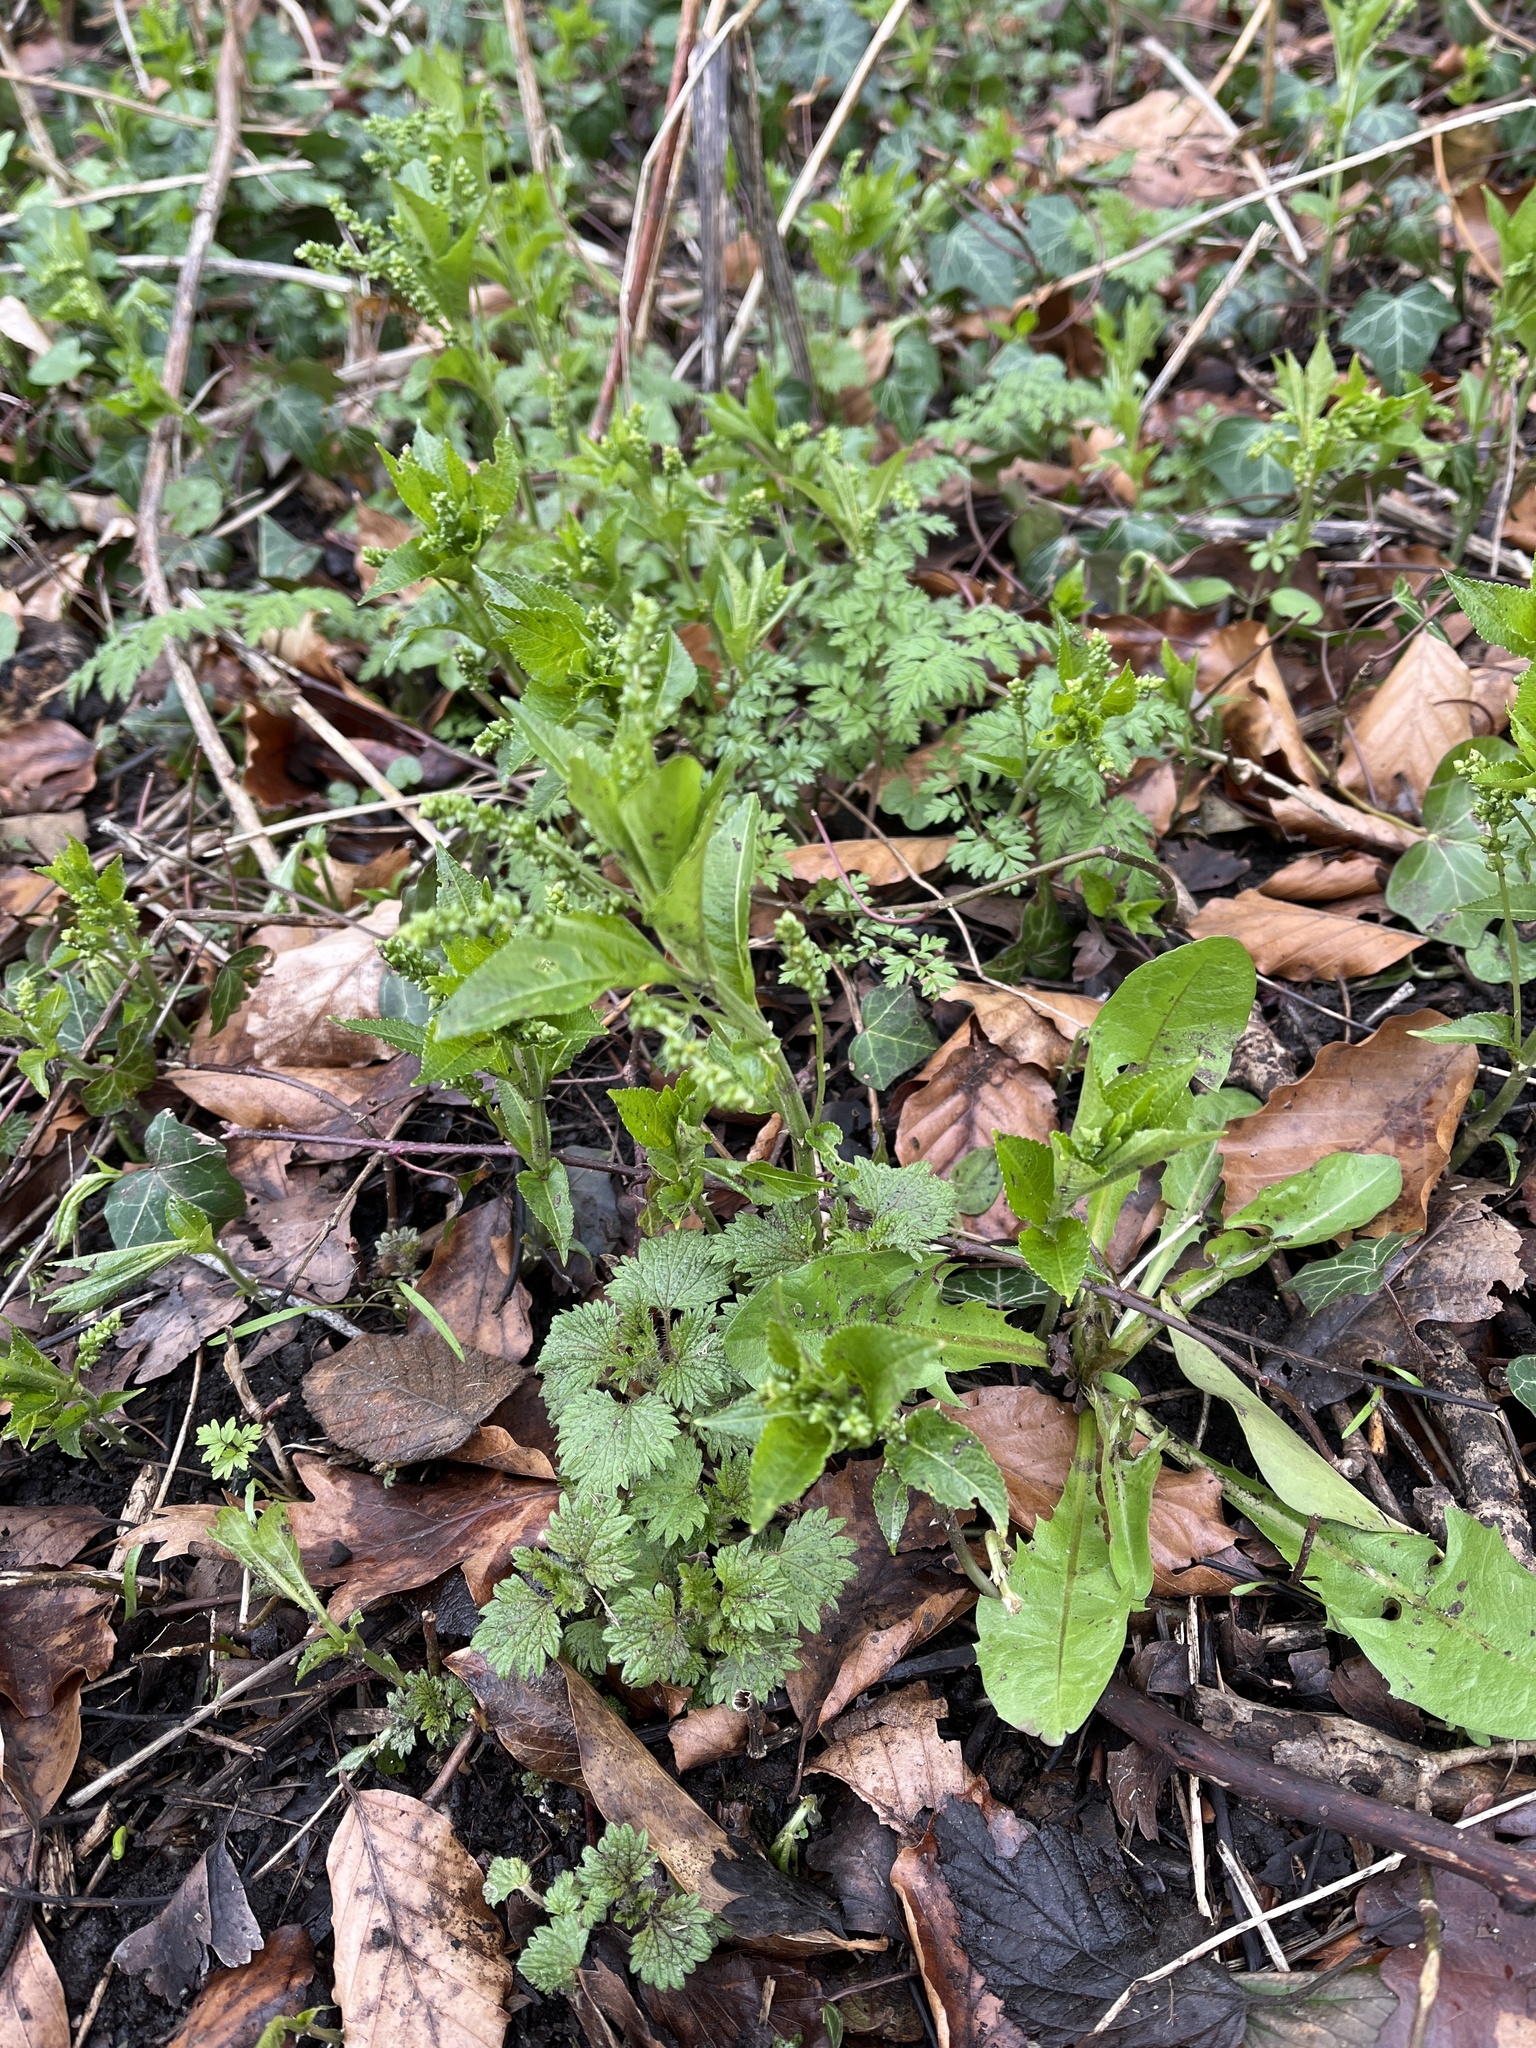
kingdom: Plantae
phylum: Tracheophyta
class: Magnoliopsida
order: Malpighiales
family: Euphorbiaceae
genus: Mercurialis
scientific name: Mercurialis perennis
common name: Dog mercury
